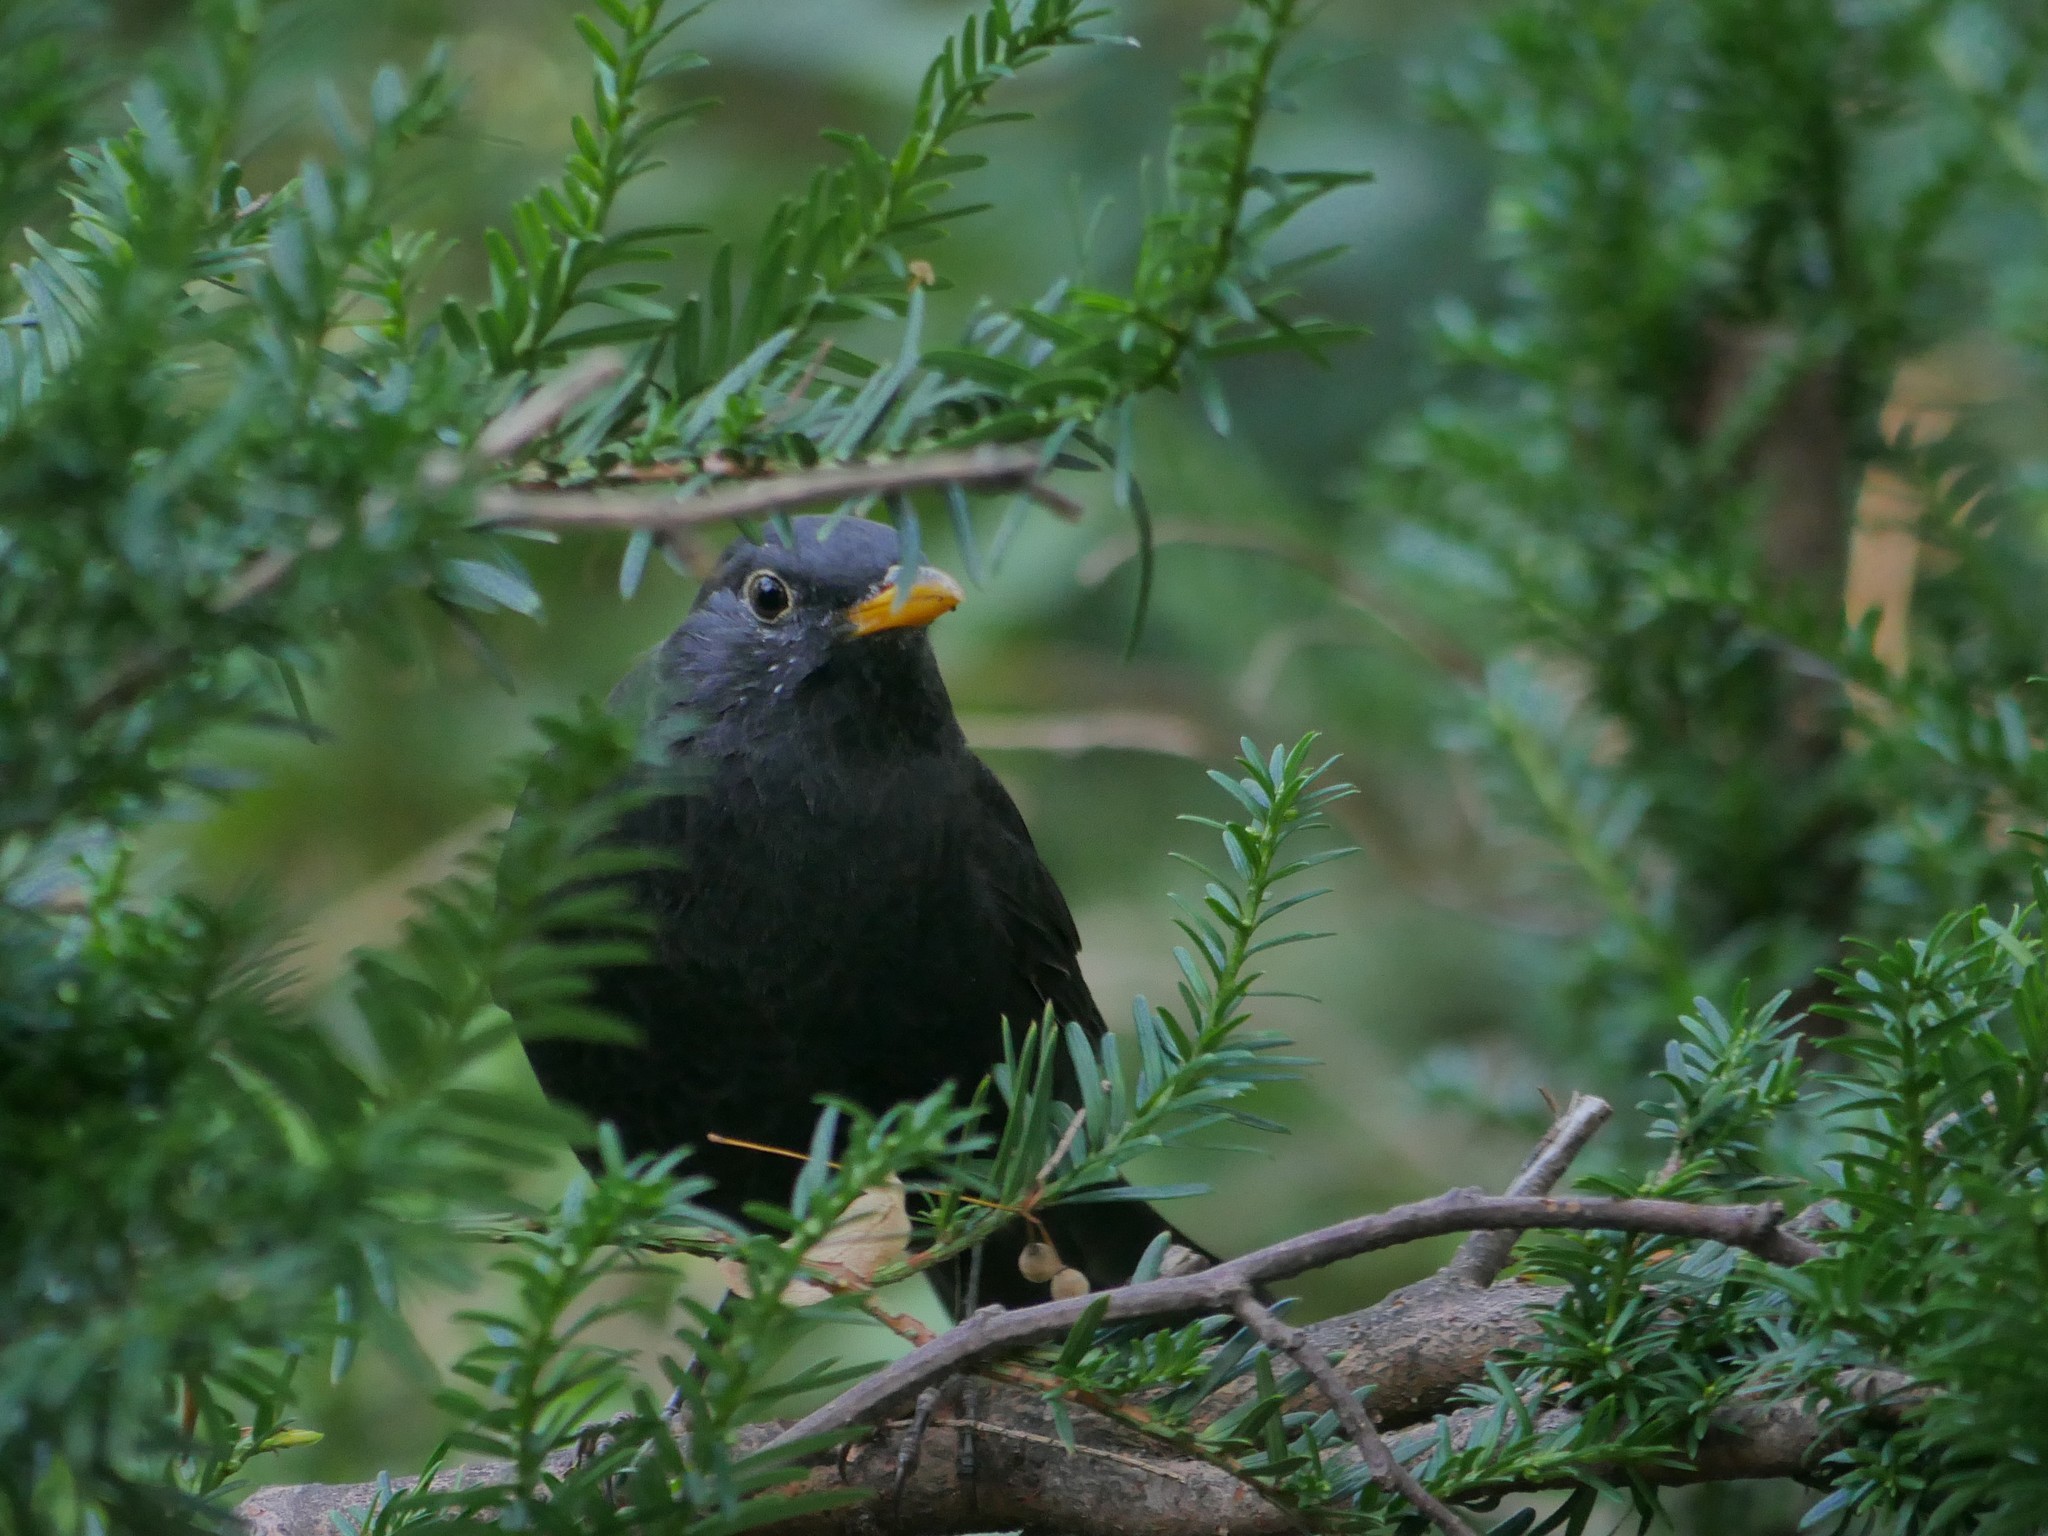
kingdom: Animalia
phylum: Chordata
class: Aves
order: Passeriformes
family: Turdidae
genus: Turdus
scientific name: Turdus merula
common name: Common blackbird
